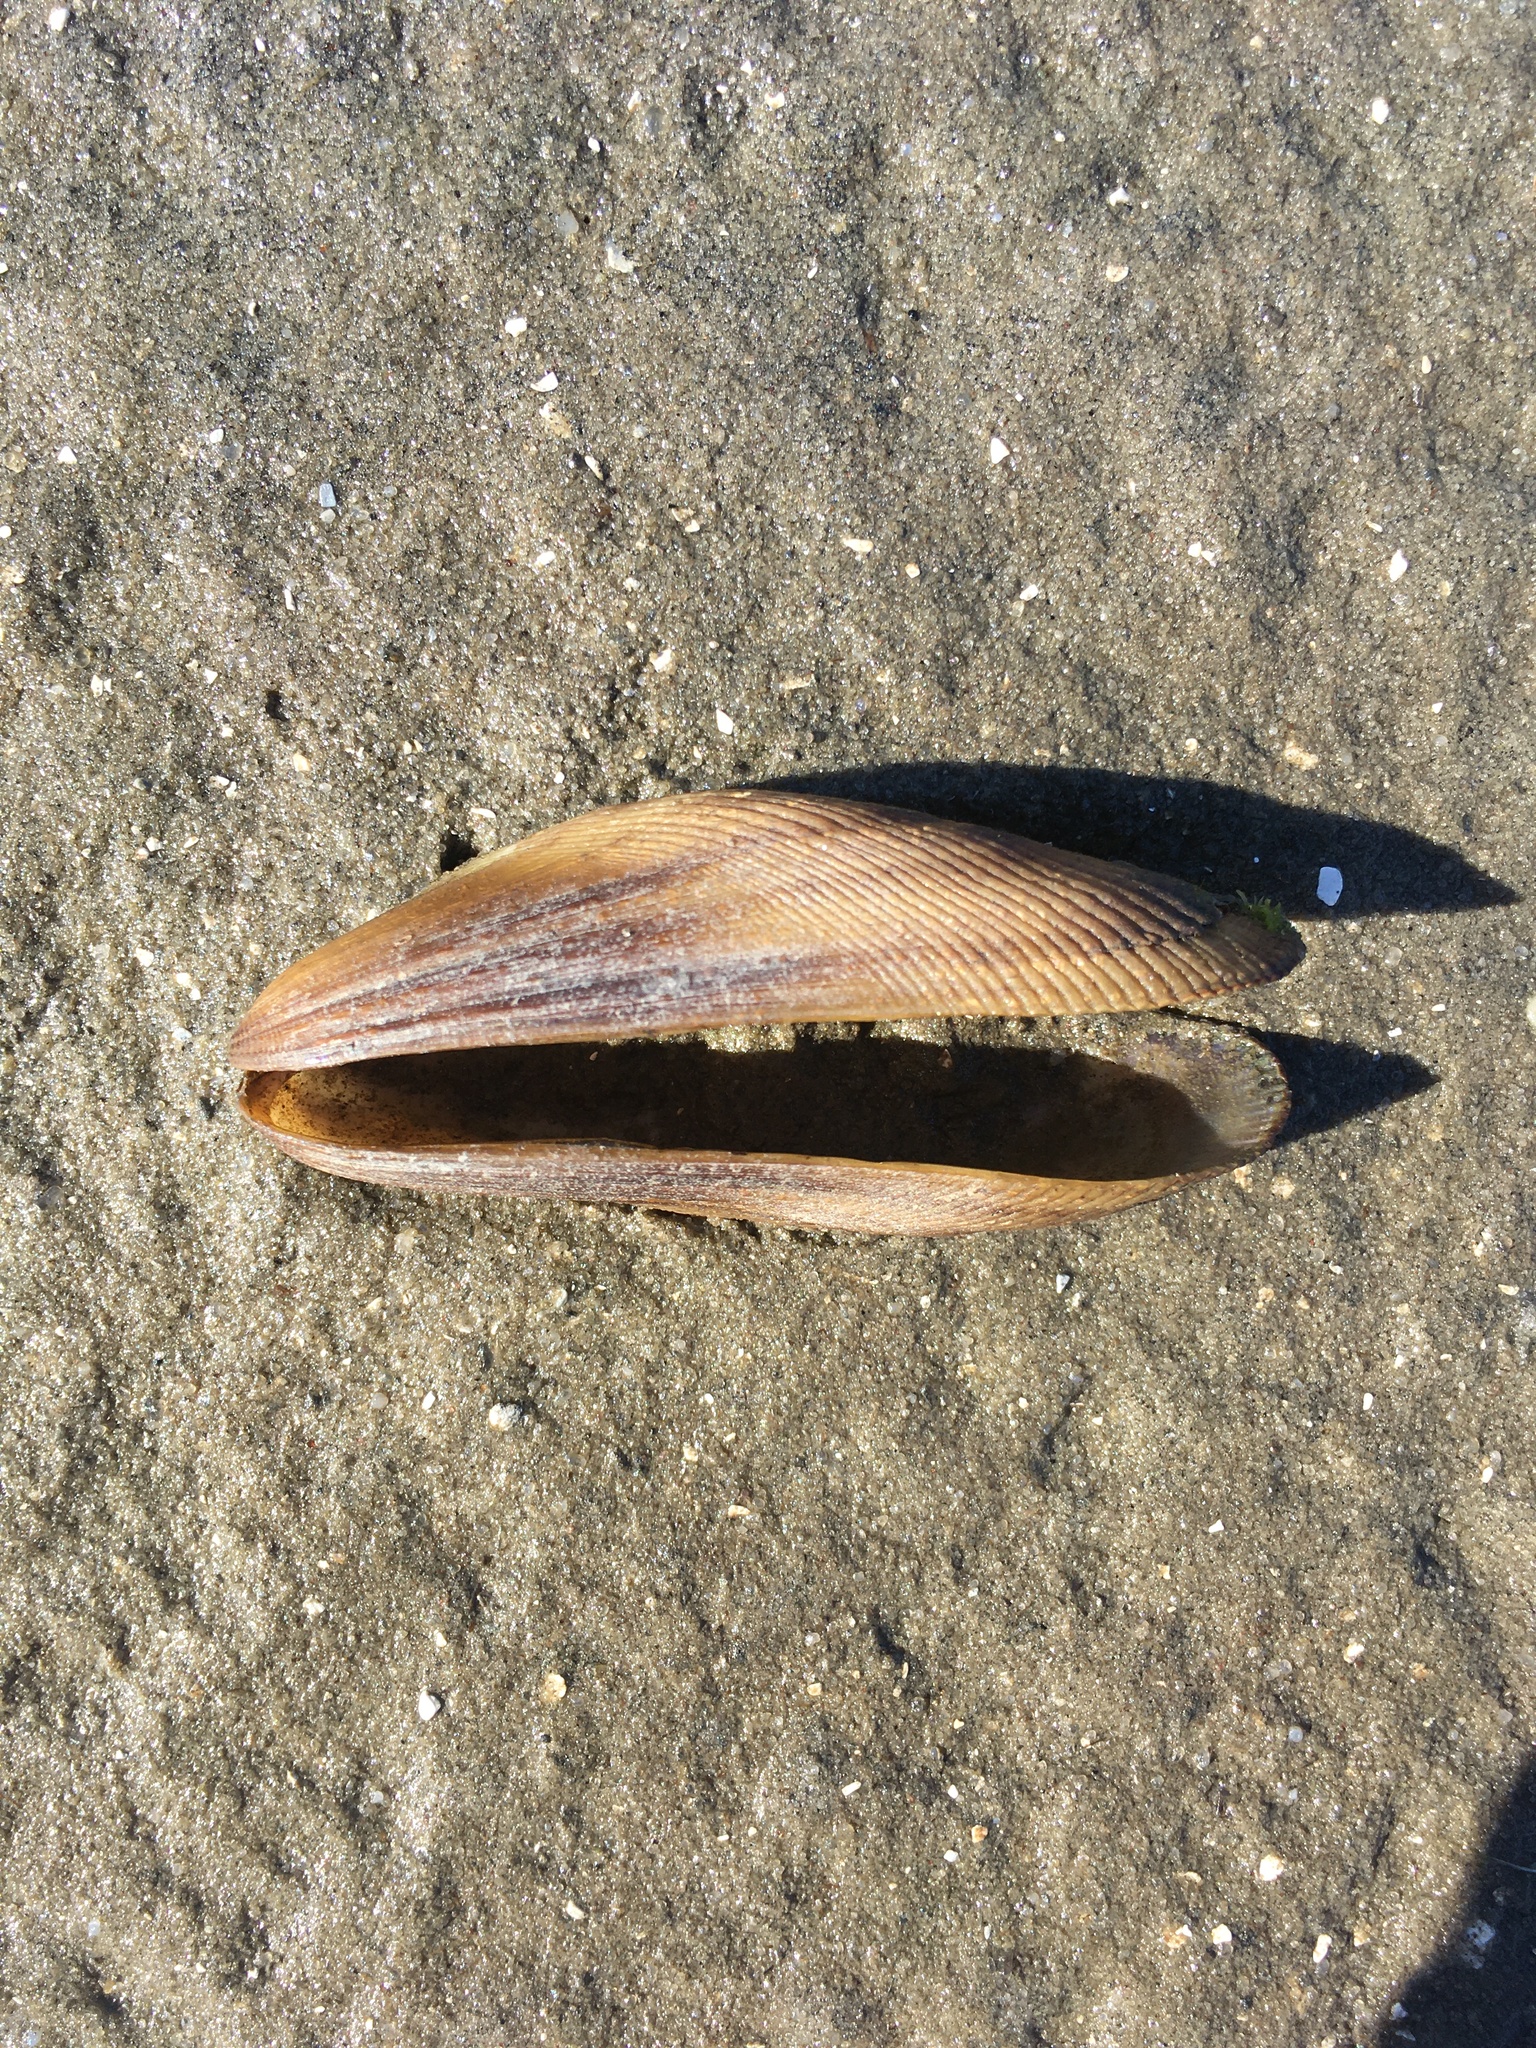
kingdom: Animalia
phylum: Mollusca
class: Bivalvia
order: Mytilida
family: Mytilidae
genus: Geukensia
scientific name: Geukensia demissa
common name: Ribbed mussel
